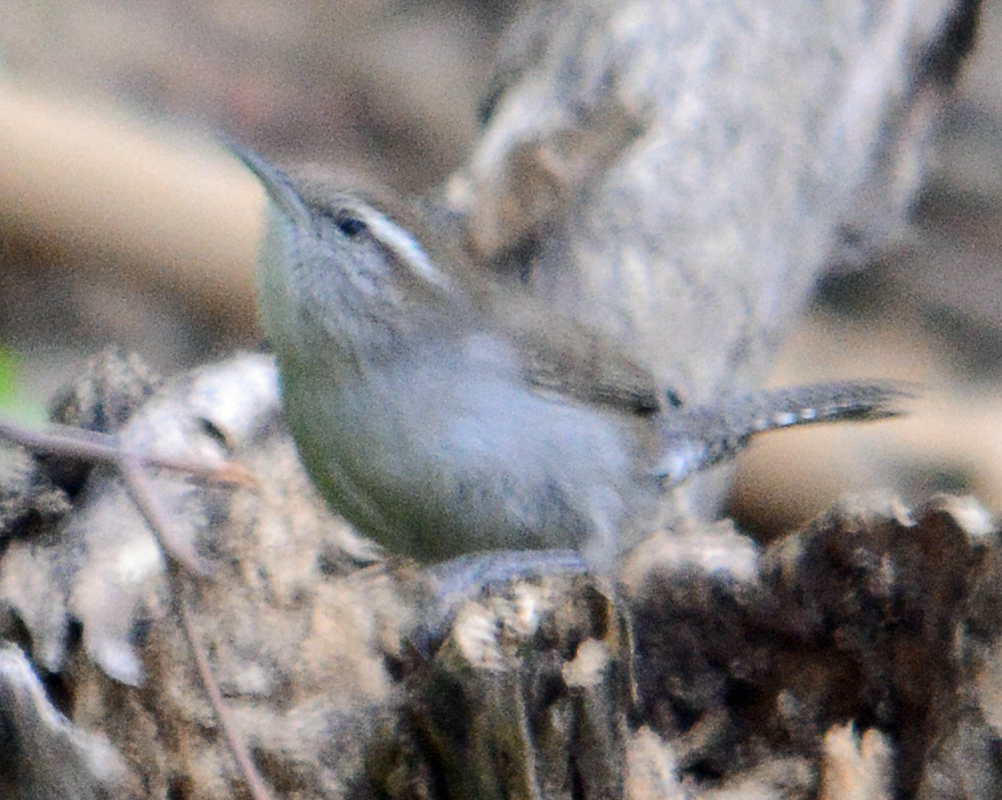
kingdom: Animalia
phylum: Chordata
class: Aves
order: Passeriformes
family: Troglodytidae
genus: Thryomanes
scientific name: Thryomanes bewickii
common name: Bewick's wren
